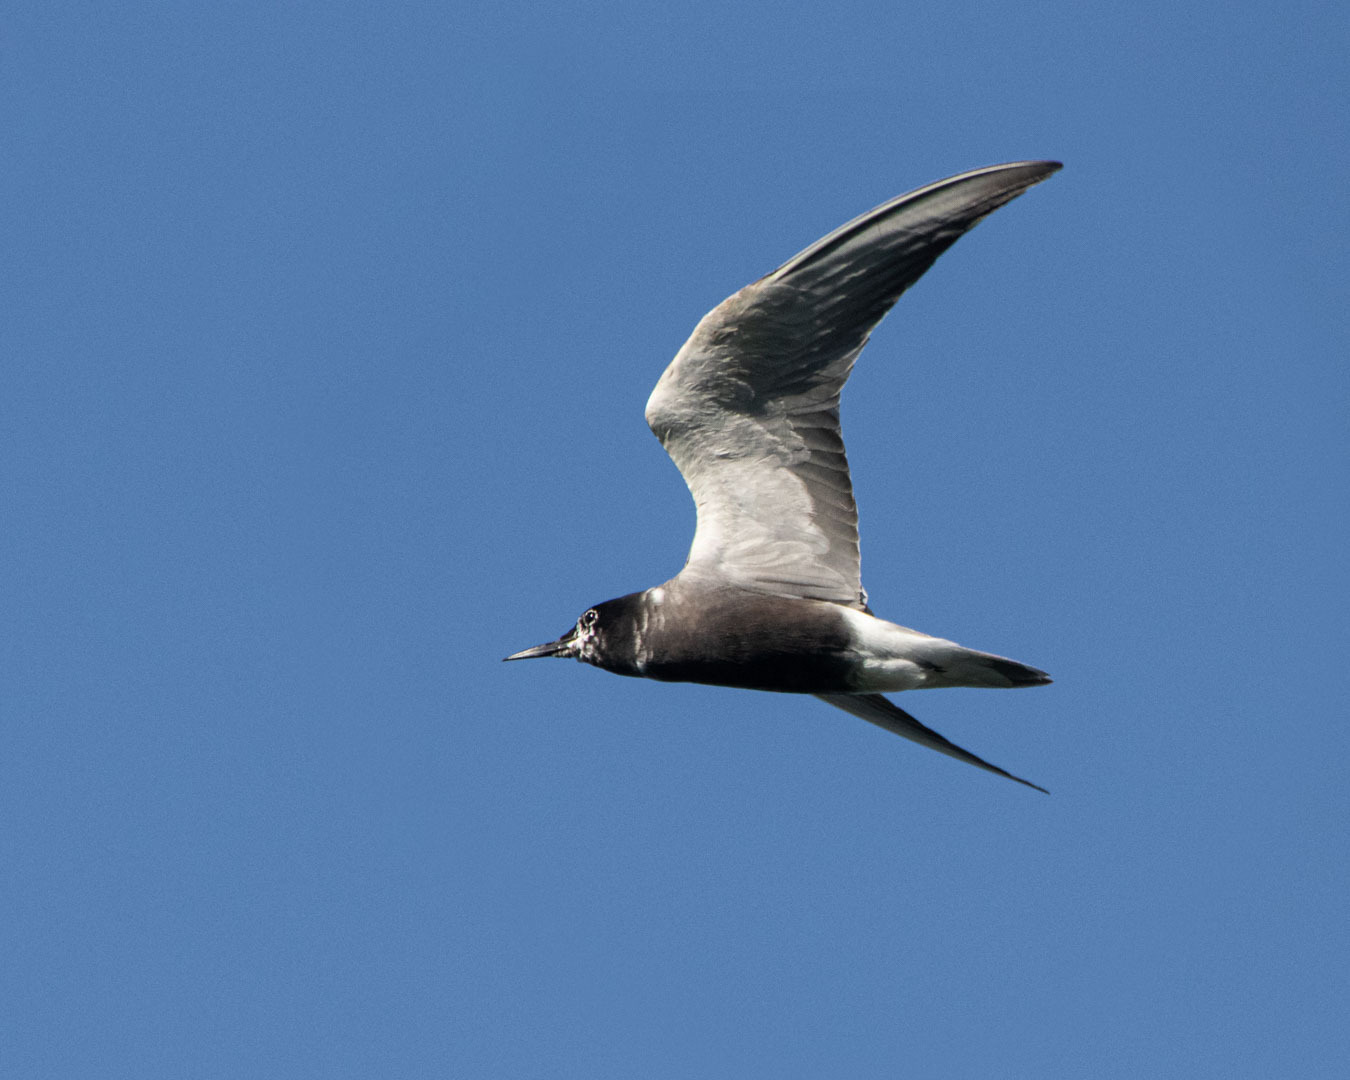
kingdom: Animalia
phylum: Chordata
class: Aves
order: Charadriiformes
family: Laridae
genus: Chlidonias
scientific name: Chlidonias niger
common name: Black tern
